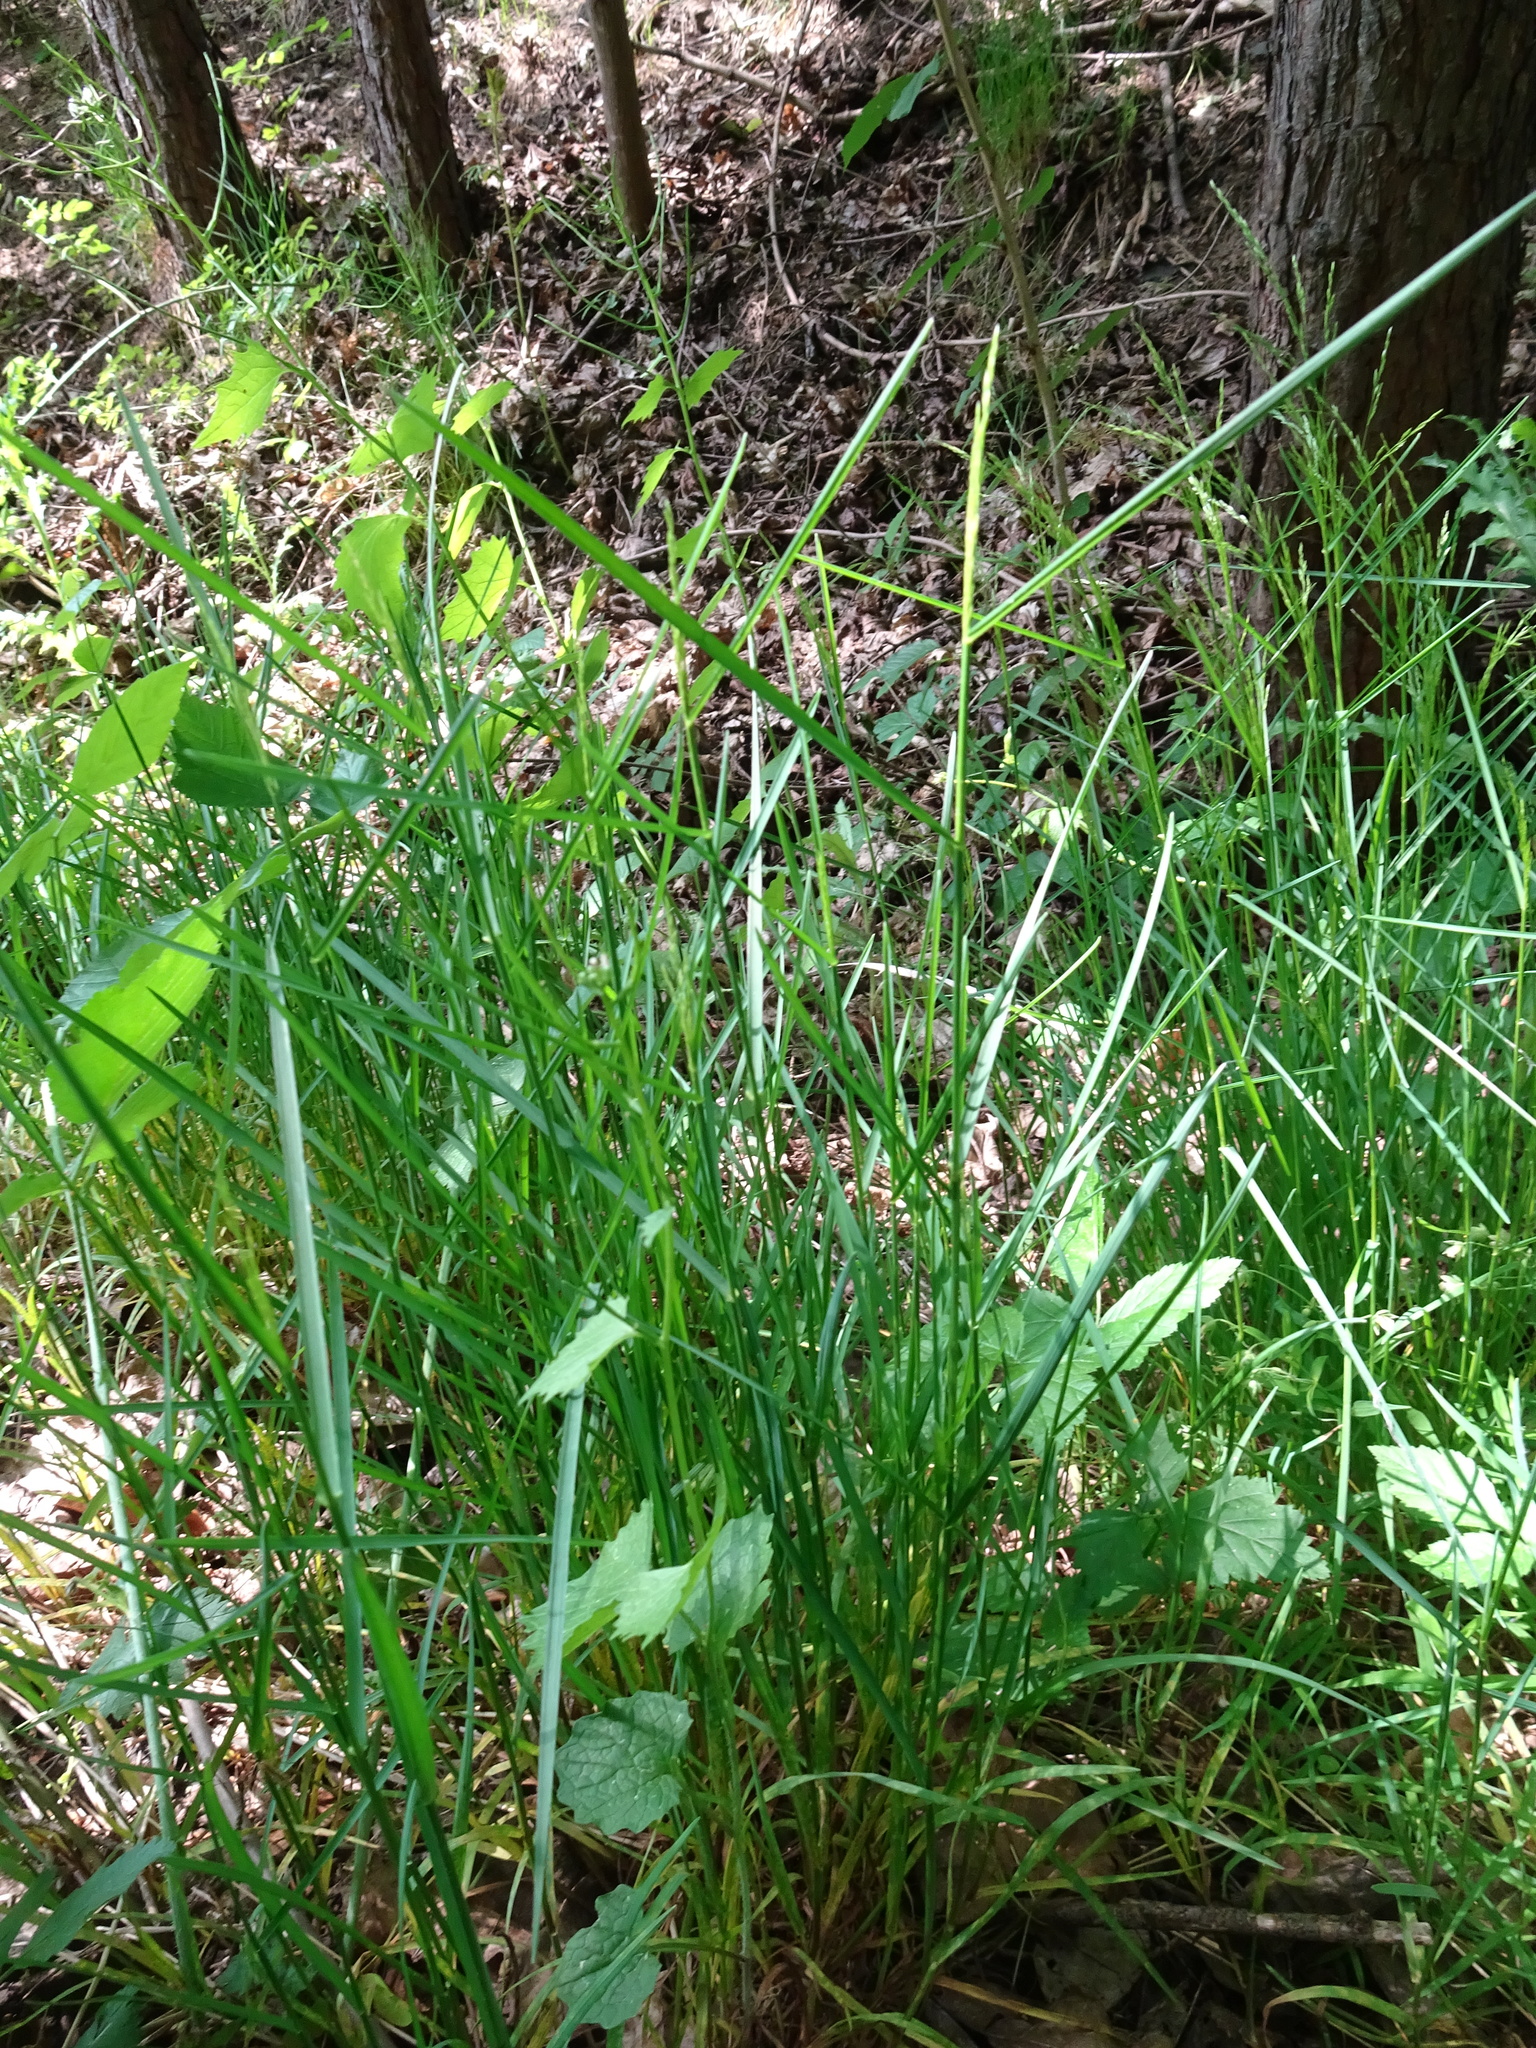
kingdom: Plantae
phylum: Tracheophyta
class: Liliopsida
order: Poales
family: Poaceae
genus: Poa
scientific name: Poa nemoralis
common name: Wood bluegrass
